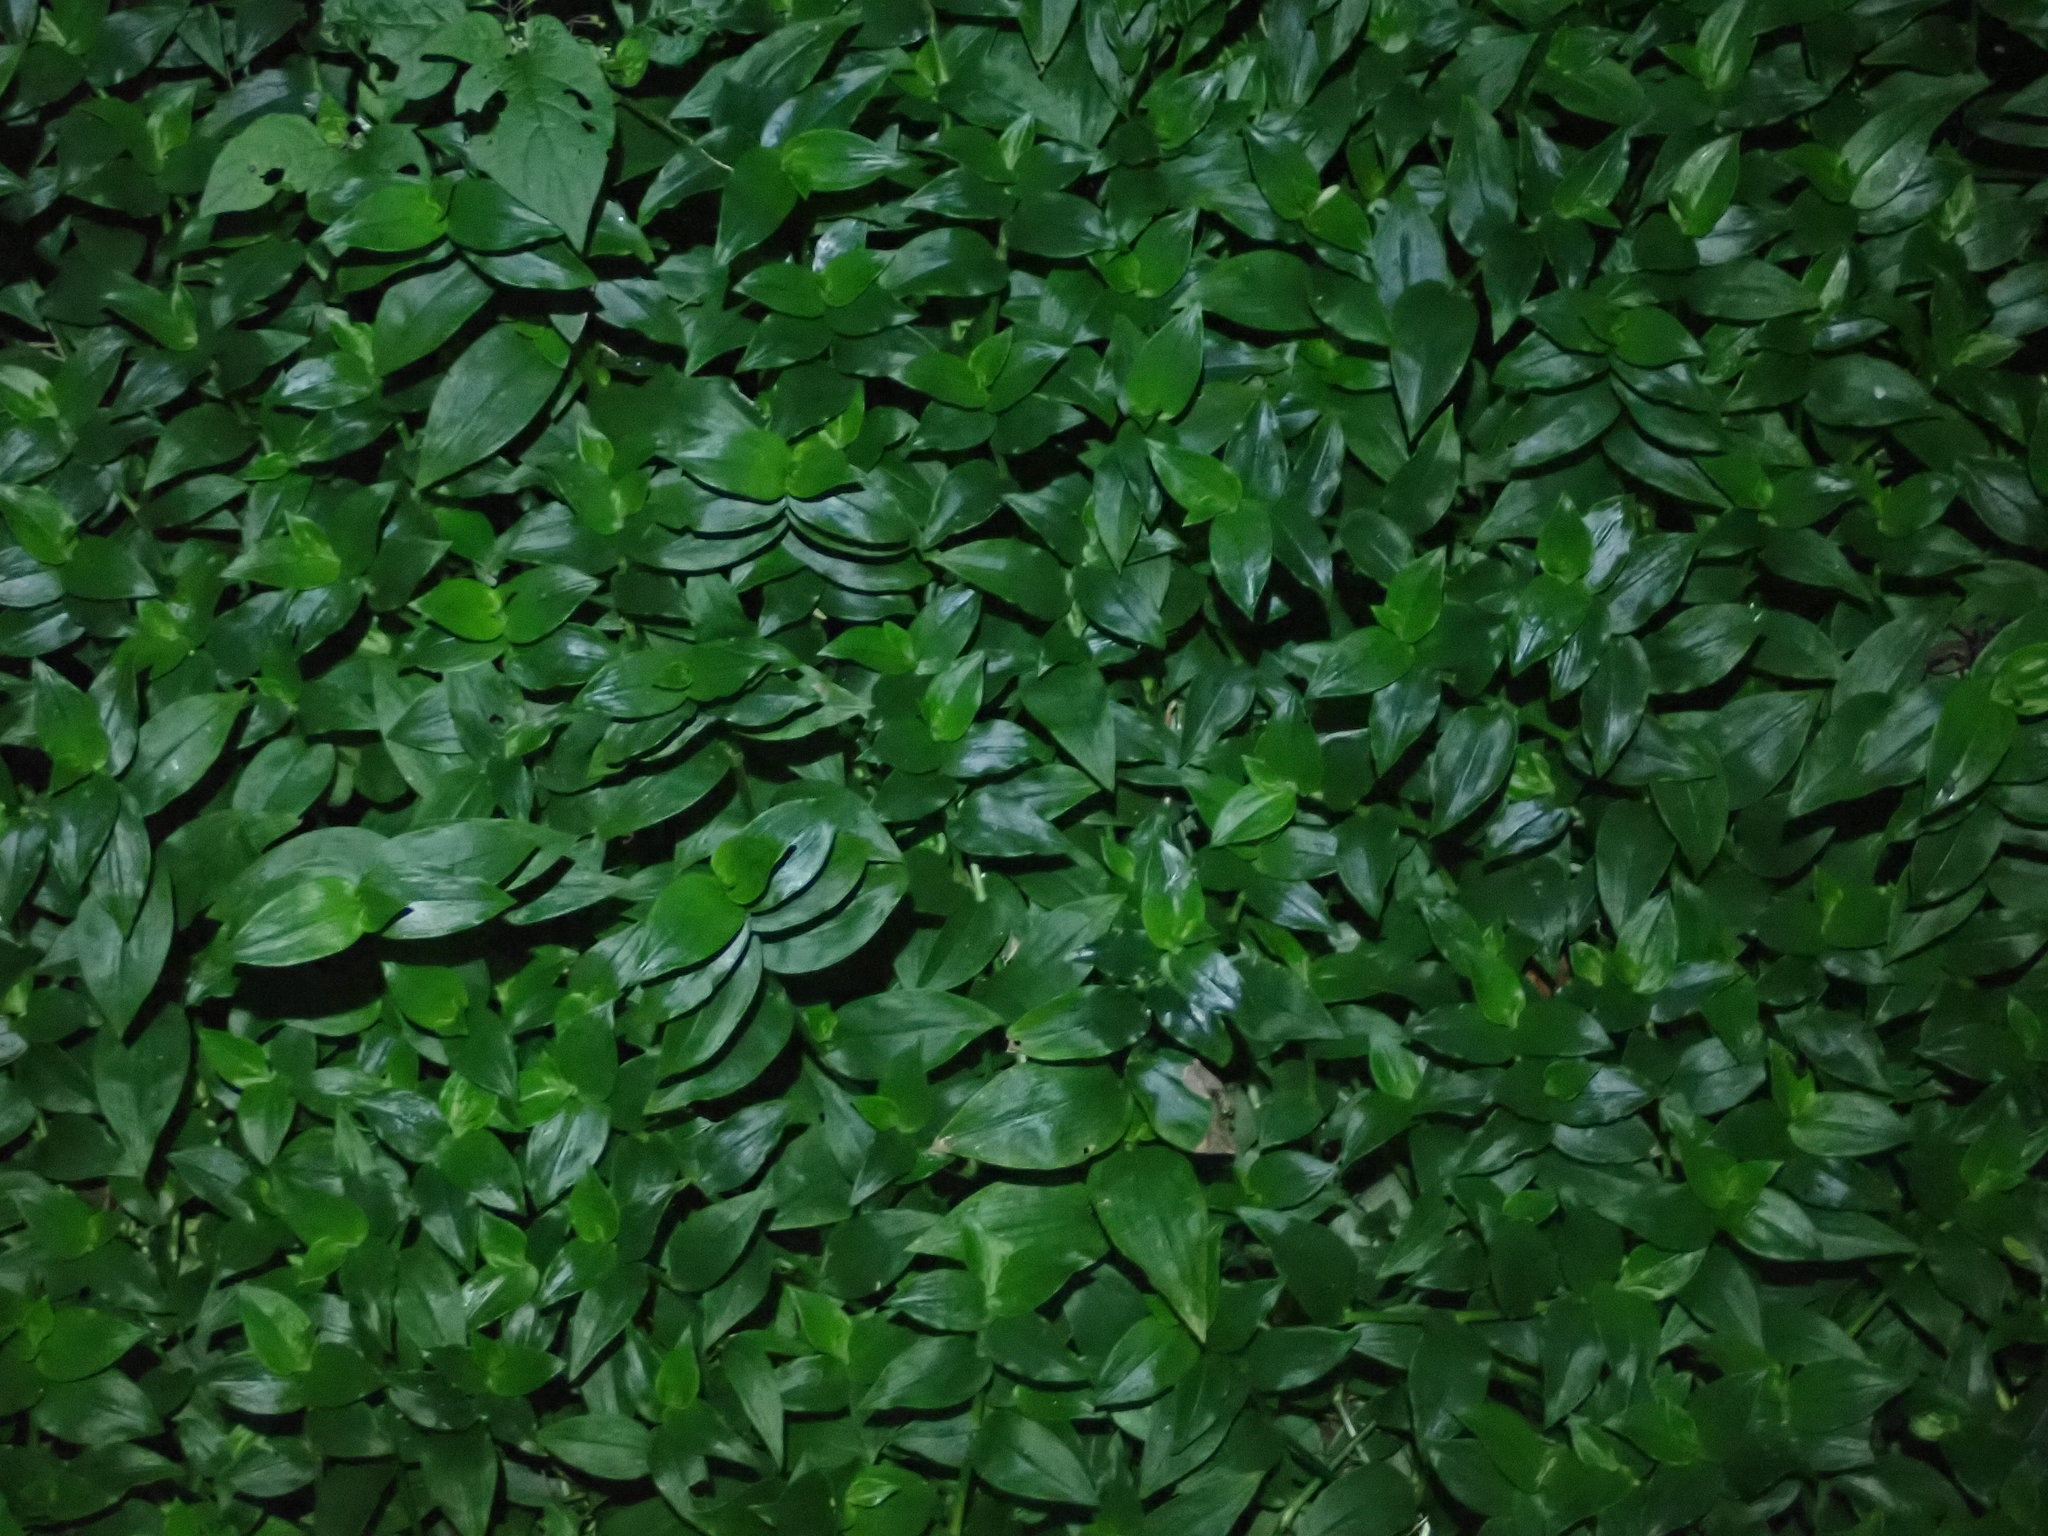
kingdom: Plantae
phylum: Tracheophyta
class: Liliopsida
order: Commelinales
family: Commelinaceae
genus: Tradescantia
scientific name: Tradescantia fluminensis
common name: Wandering-jew
